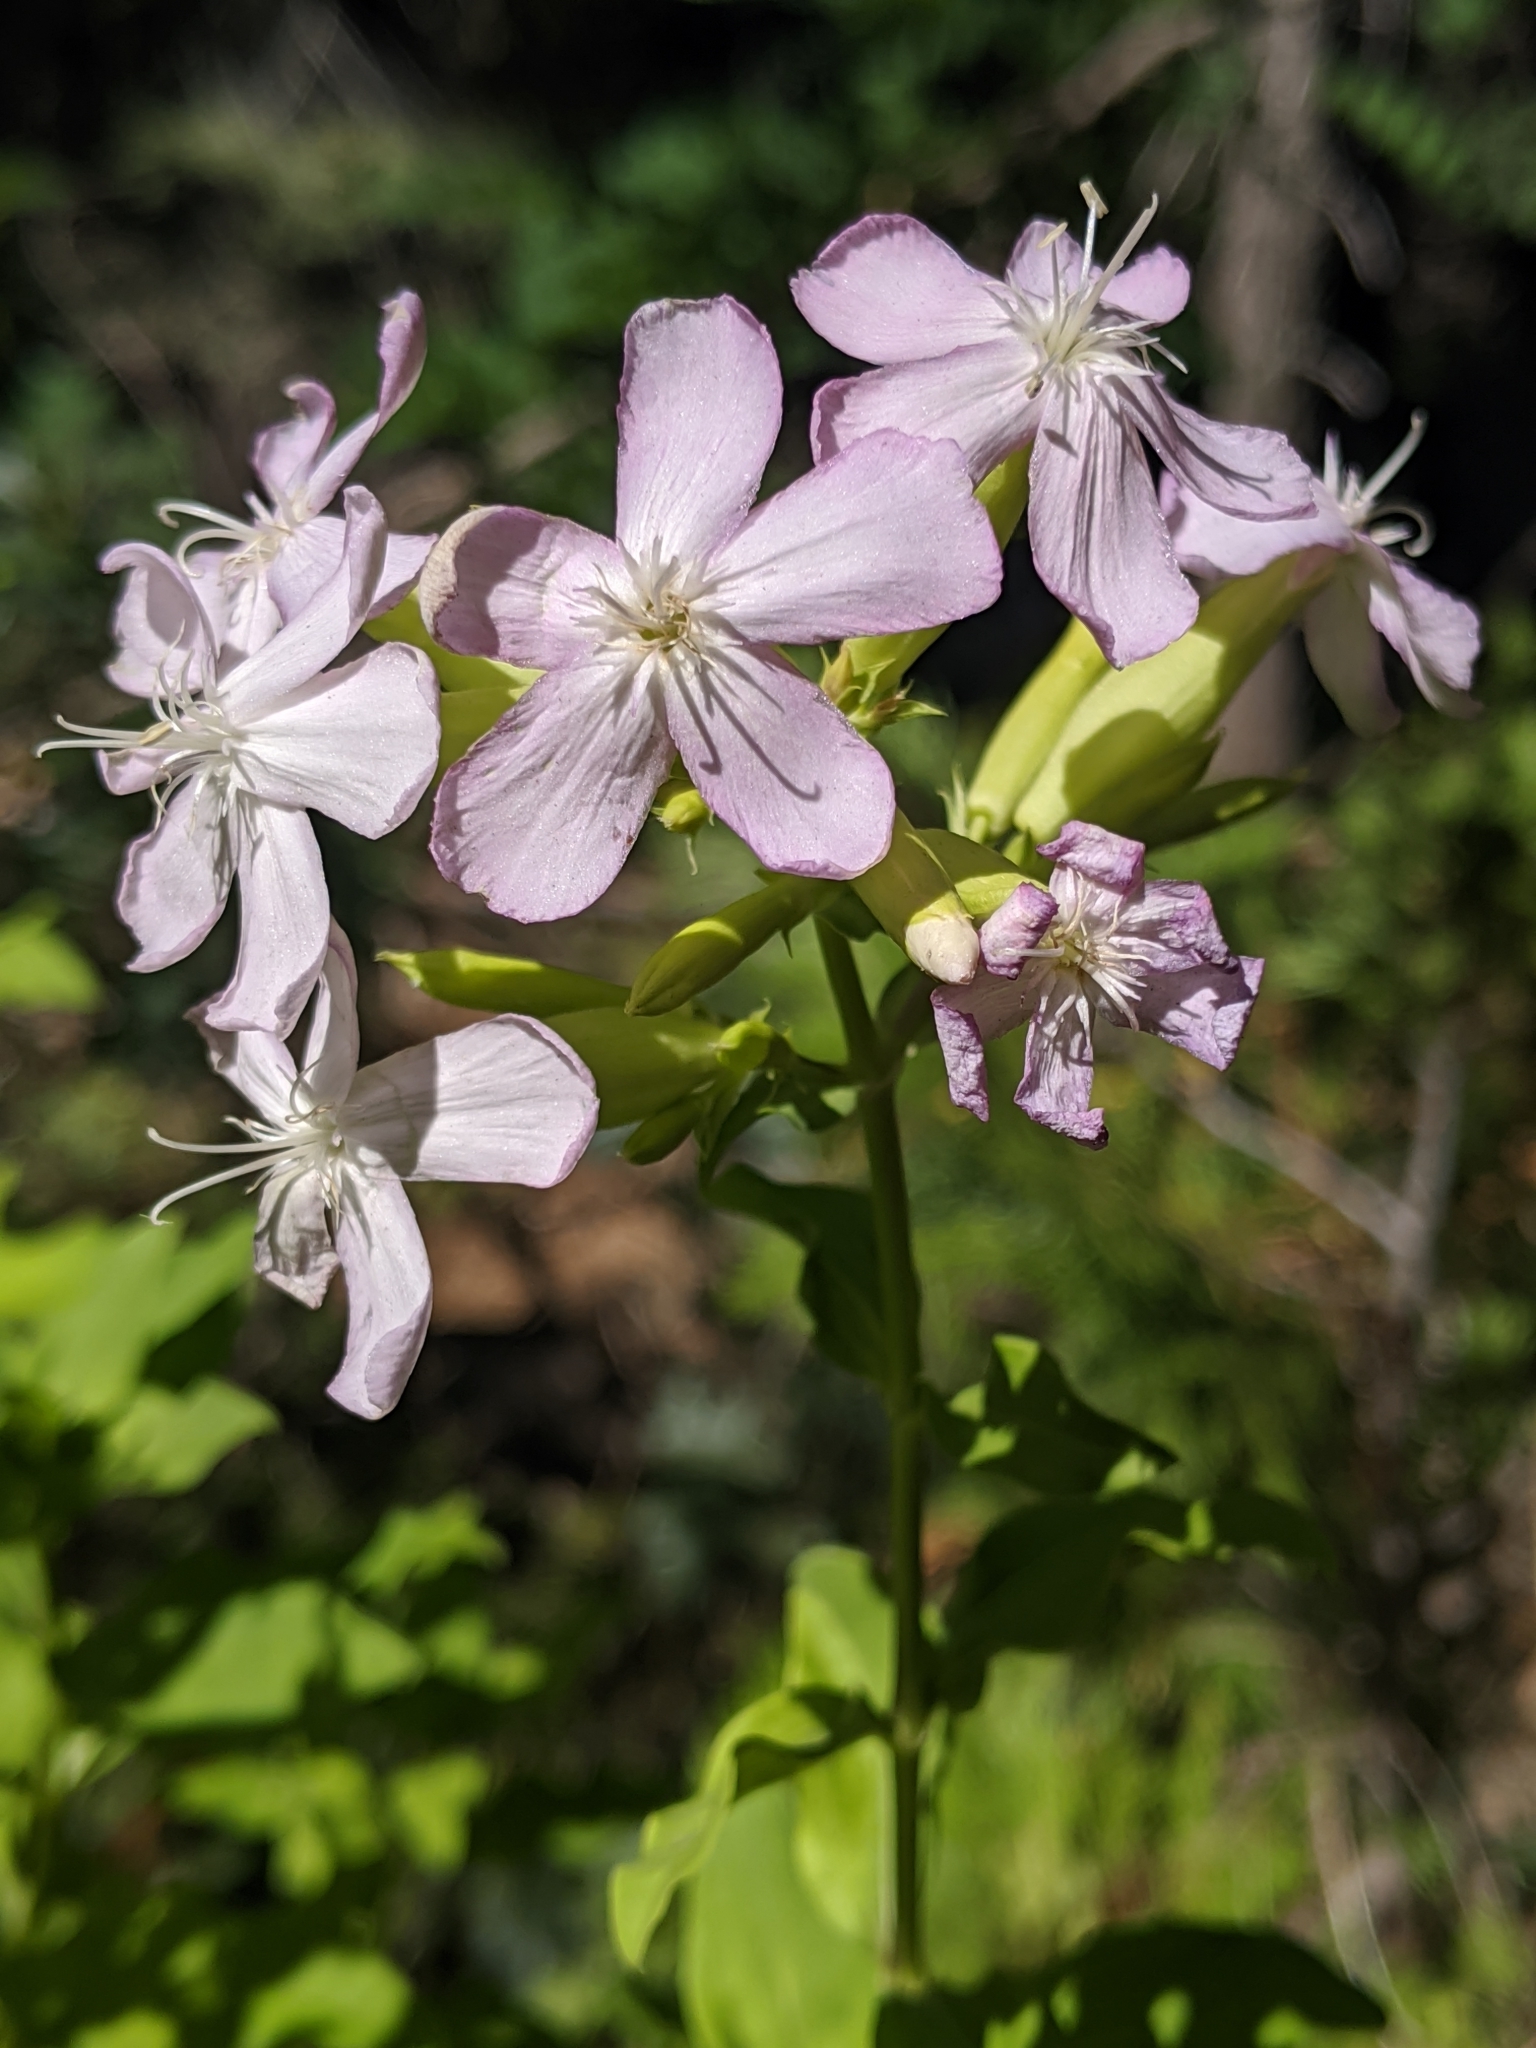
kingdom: Plantae
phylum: Tracheophyta
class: Magnoliopsida
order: Caryophyllales
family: Caryophyllaceae
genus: Saponaria
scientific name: Saponaria officinalis
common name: Soapwort
